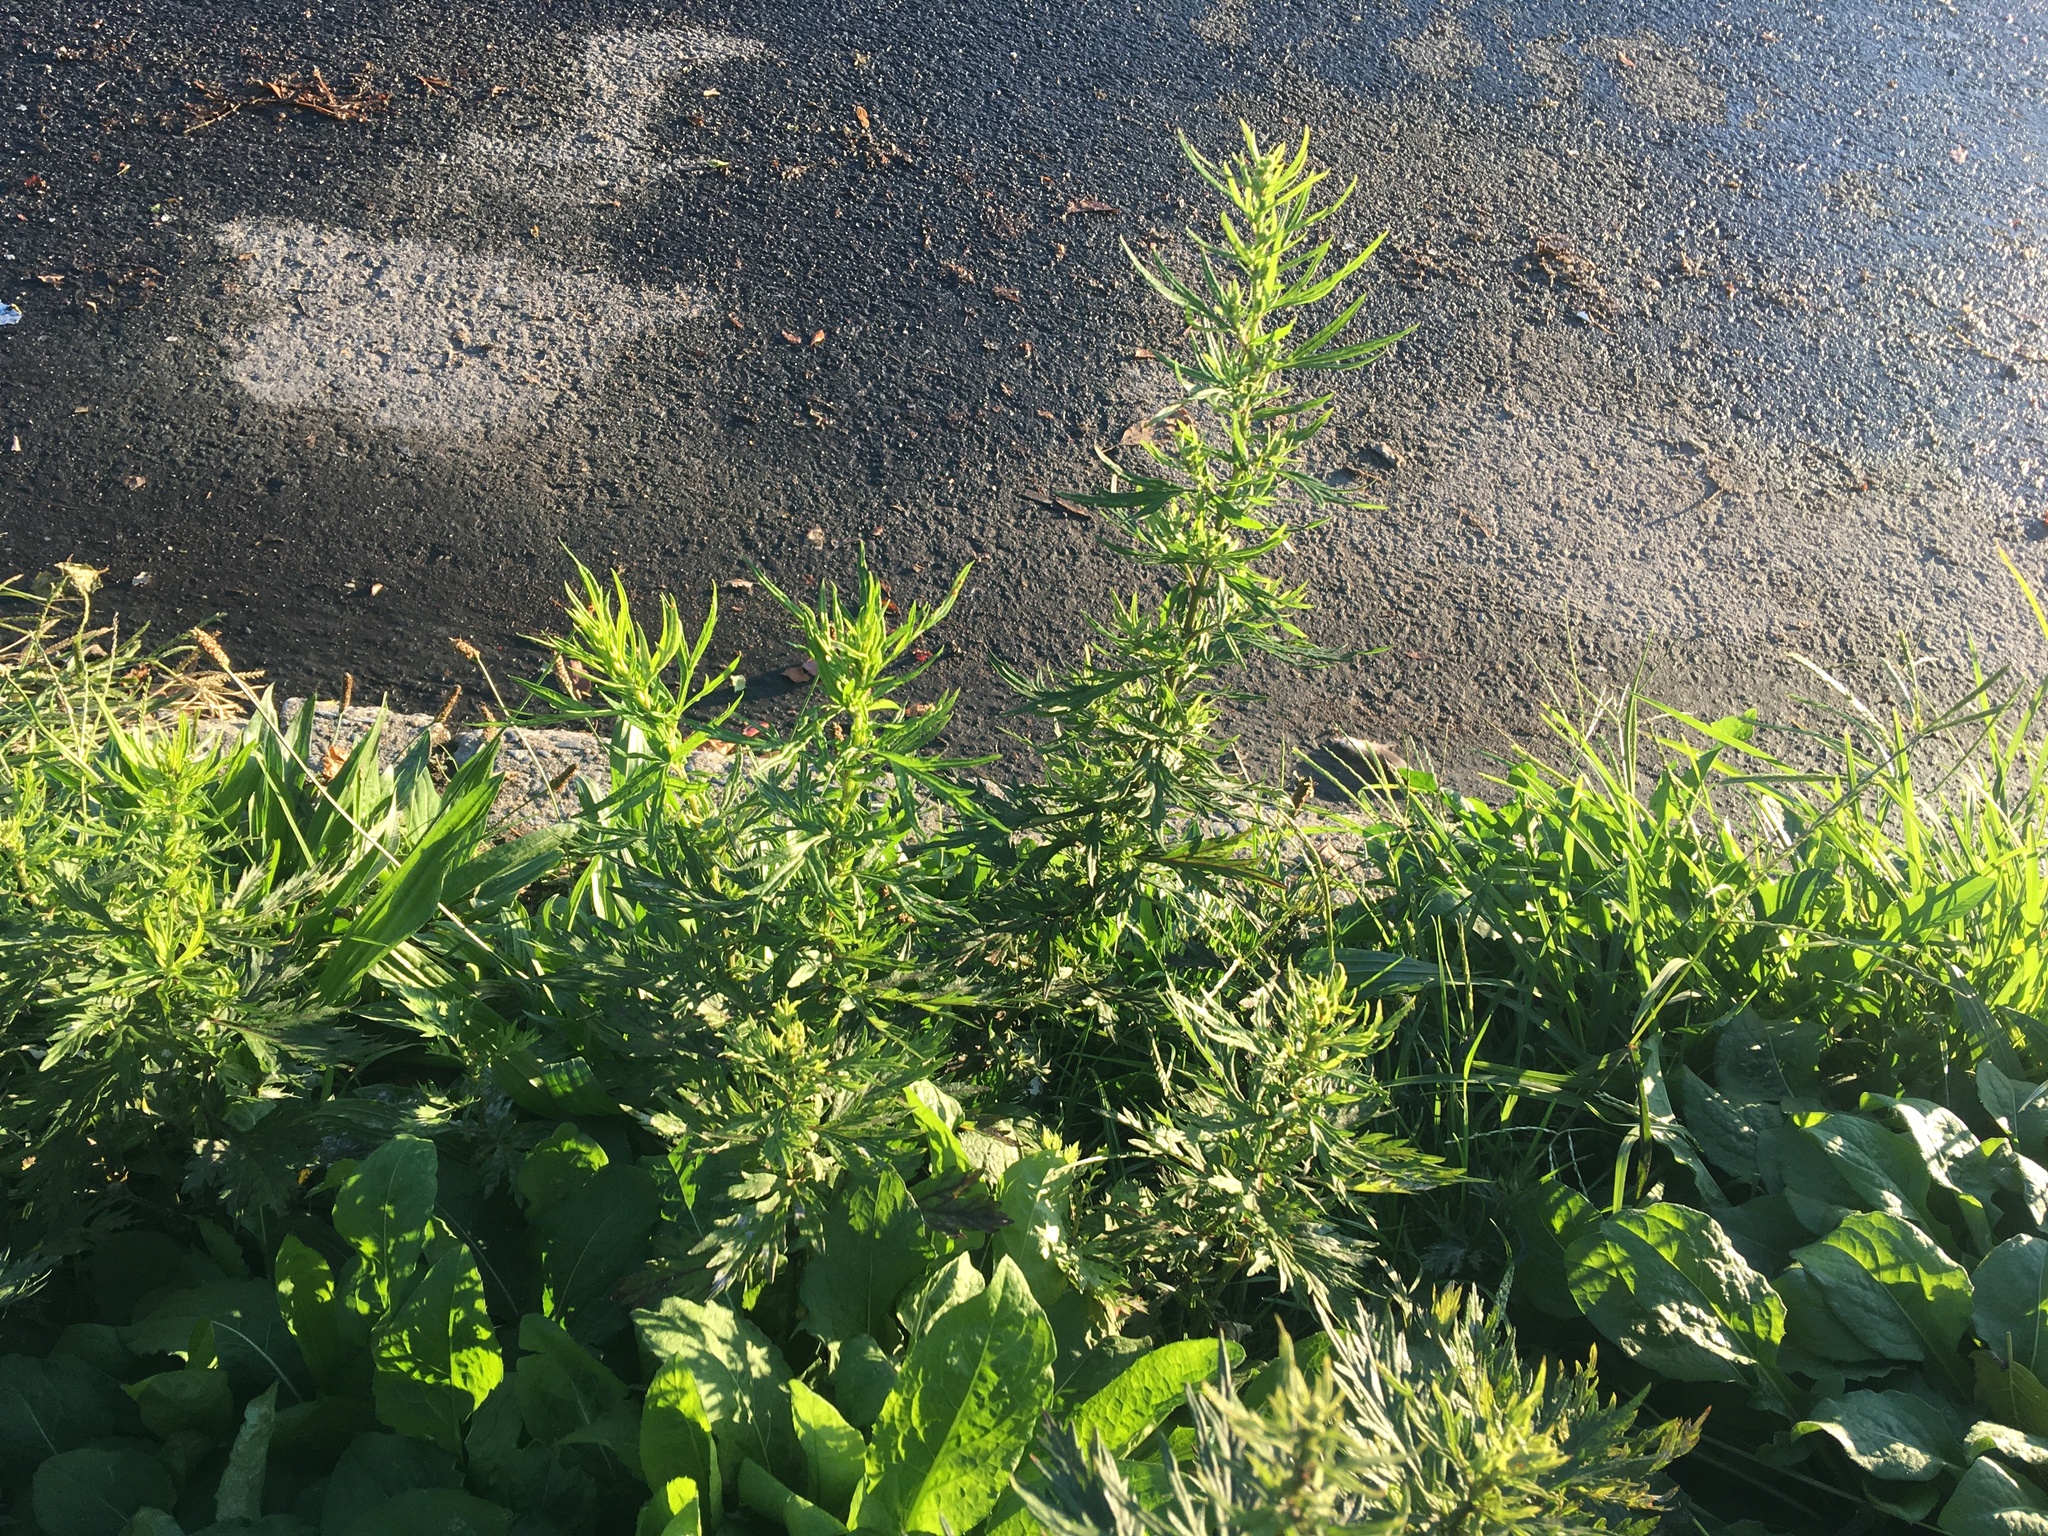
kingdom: Plantae
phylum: Tracheophyta
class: Magnoliopsida
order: Asterales
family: Asteraceae
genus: Artemisia
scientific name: Artemisia vulgaris
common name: Mugwort
